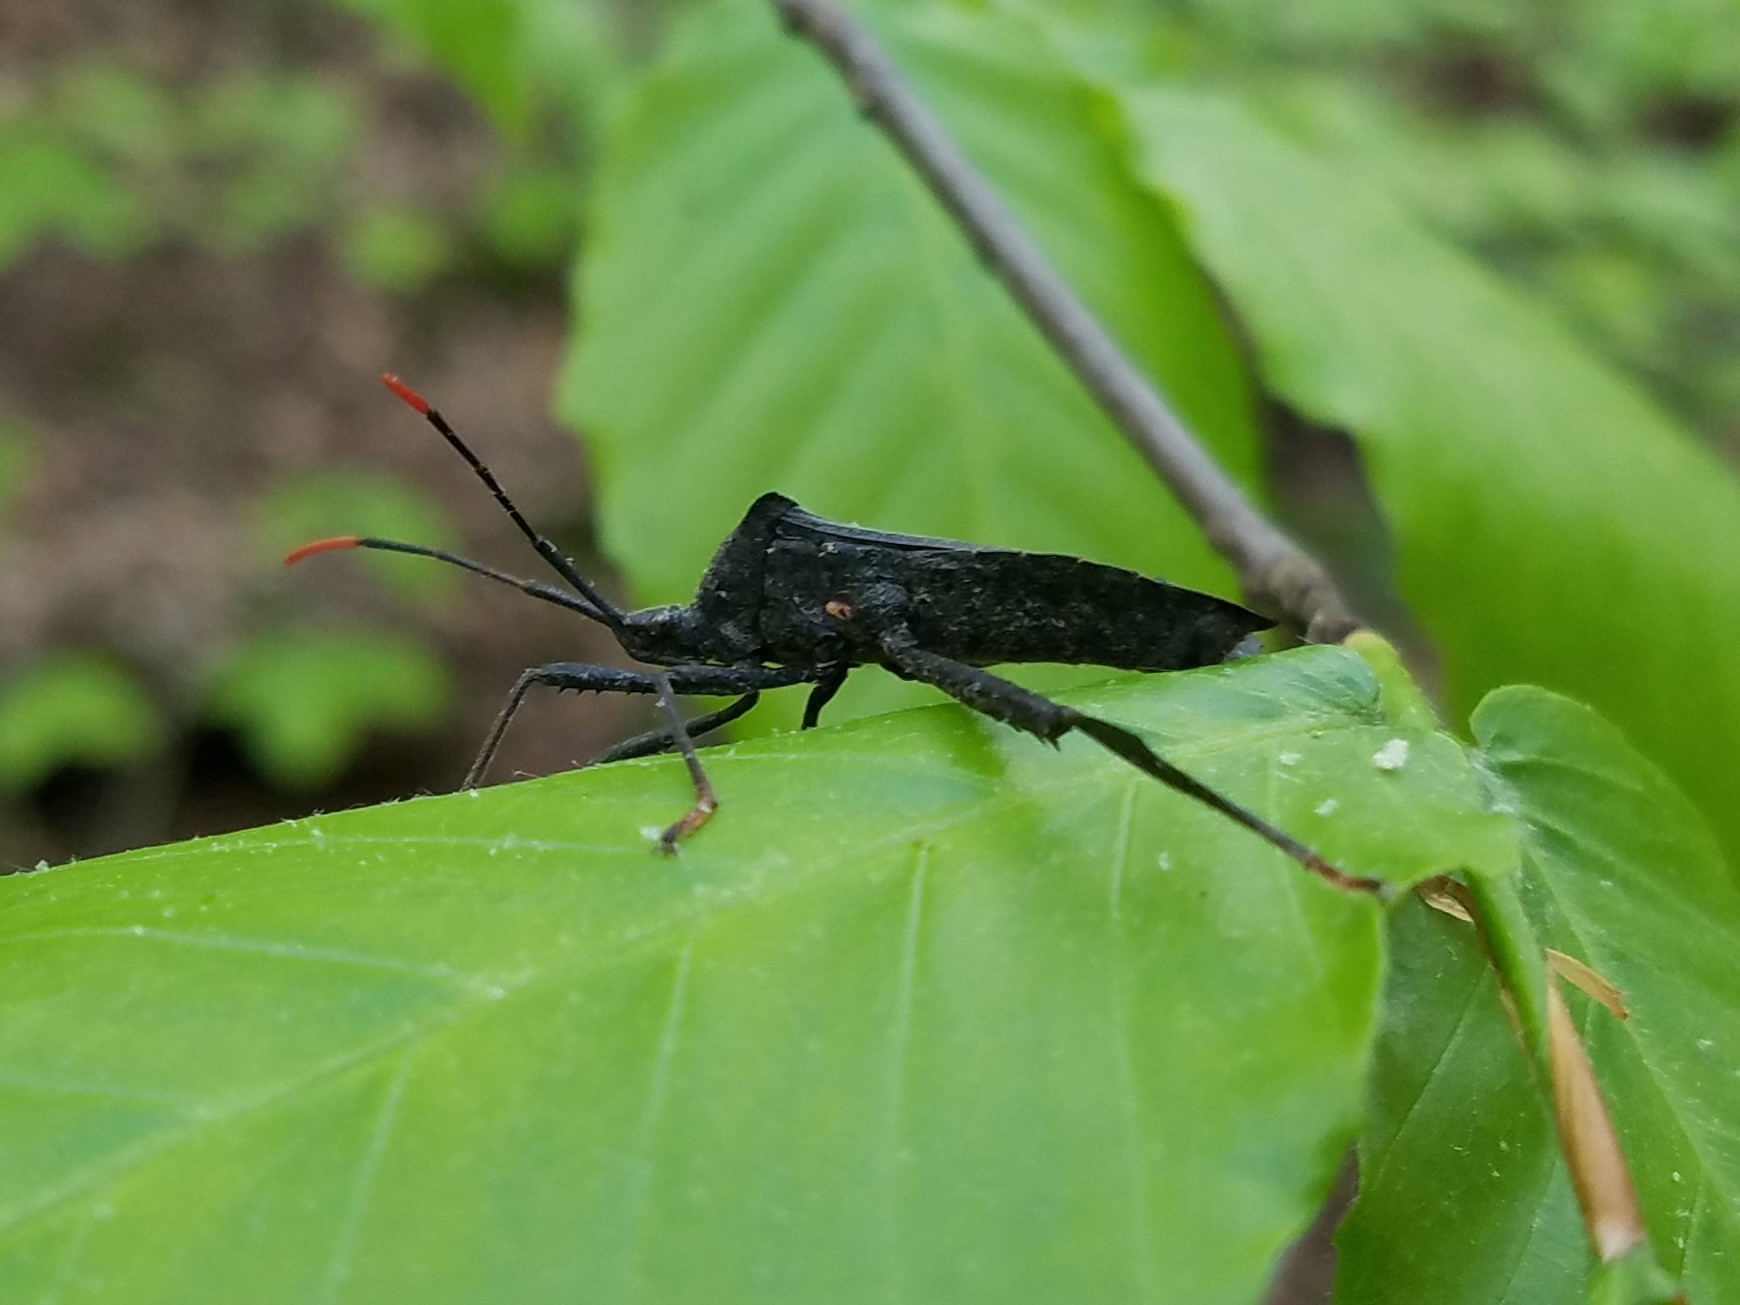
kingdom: Animalia
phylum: Arthropoda
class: Insecta
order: Hemiptera
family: Coreidae
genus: Acanthocephala
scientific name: Acanthocephala terminalis
